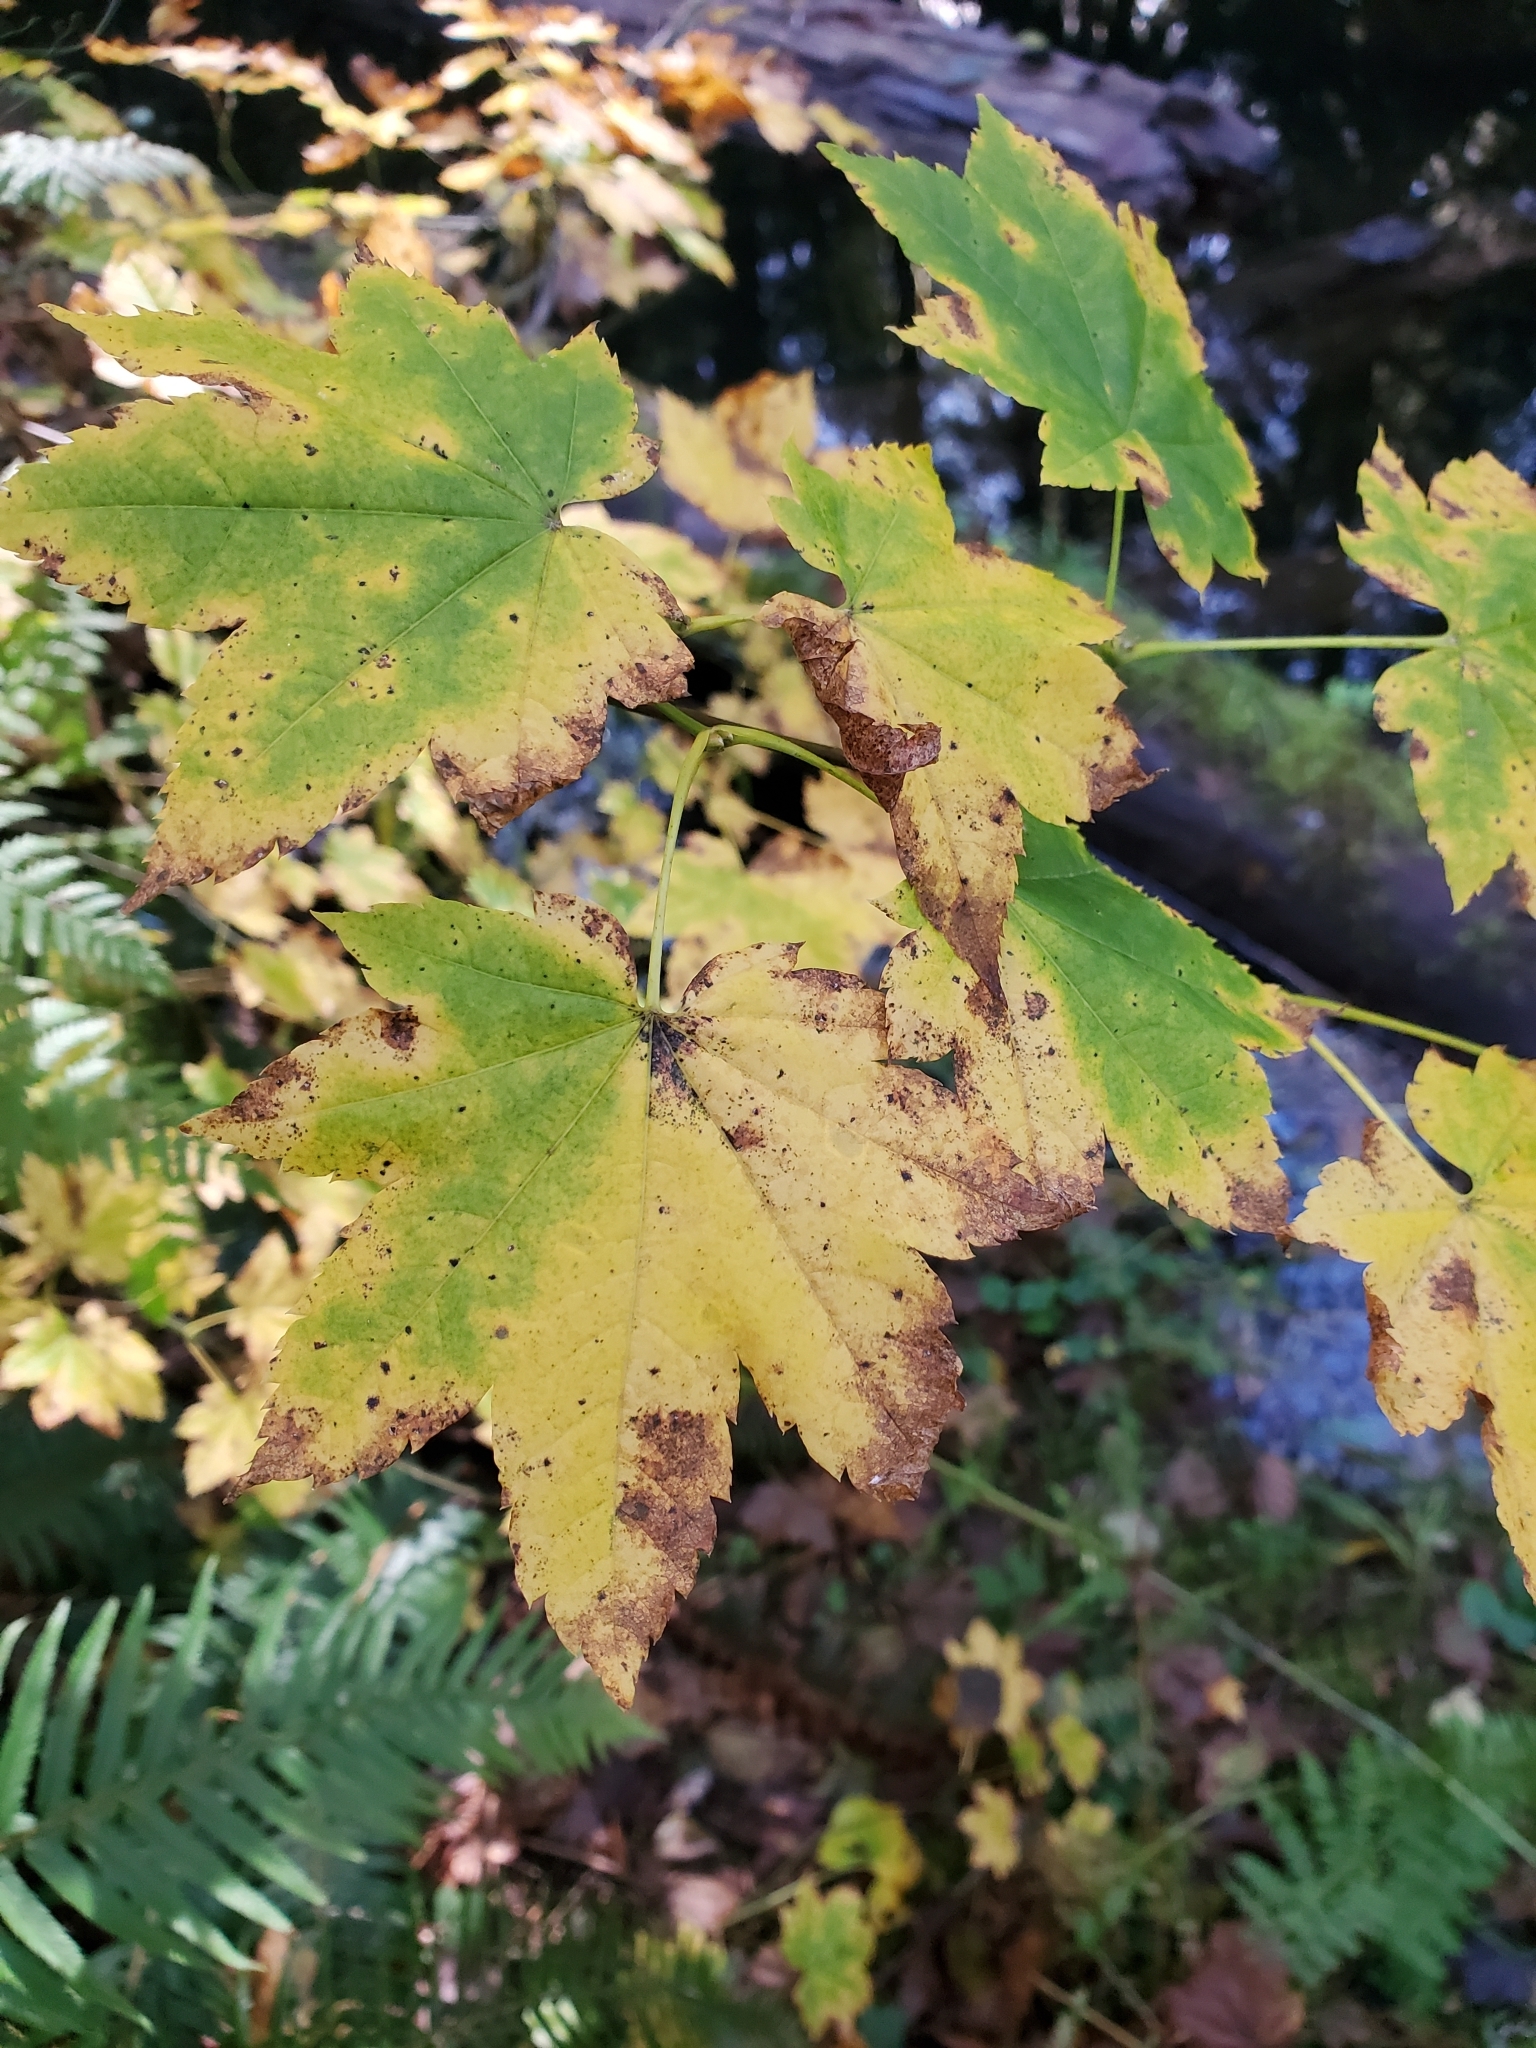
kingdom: Plantae
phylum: Tracheophyta
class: Magnoliopsida
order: Sapindales
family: Sapindaceae
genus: Acer
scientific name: Acer circinatum
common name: Vine maple
